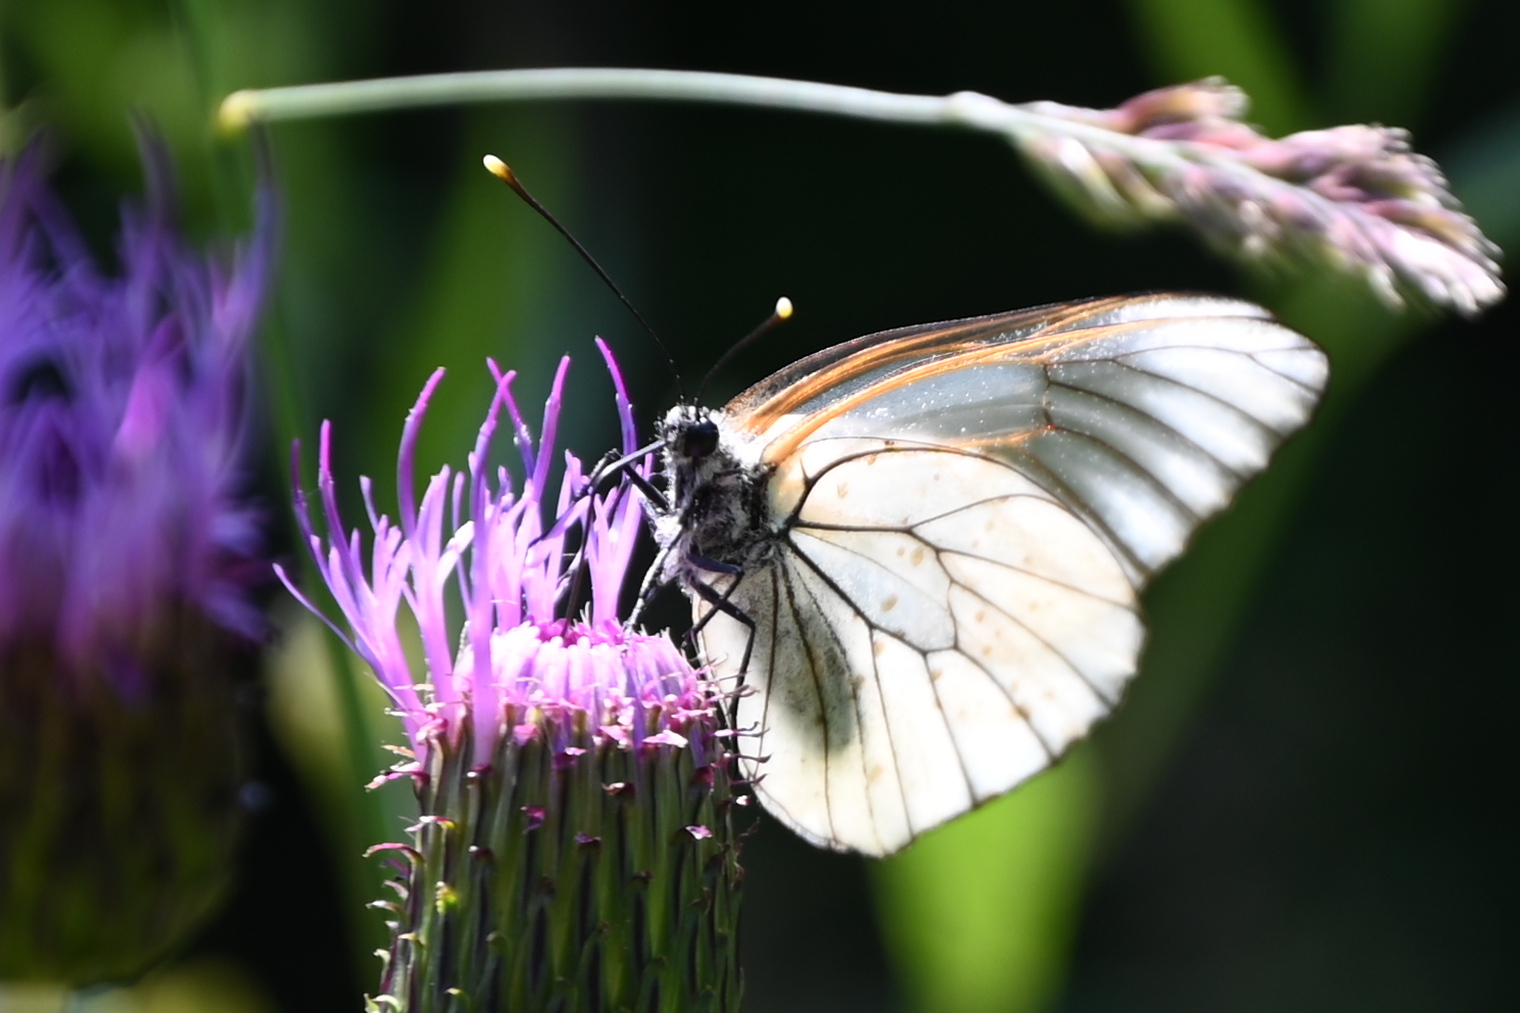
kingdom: Animalia
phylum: Arthropoda
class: Insecta
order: Lepidoptera
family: Pieridae
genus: Aporia
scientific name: Aporia crataegi
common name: Black-veined white
